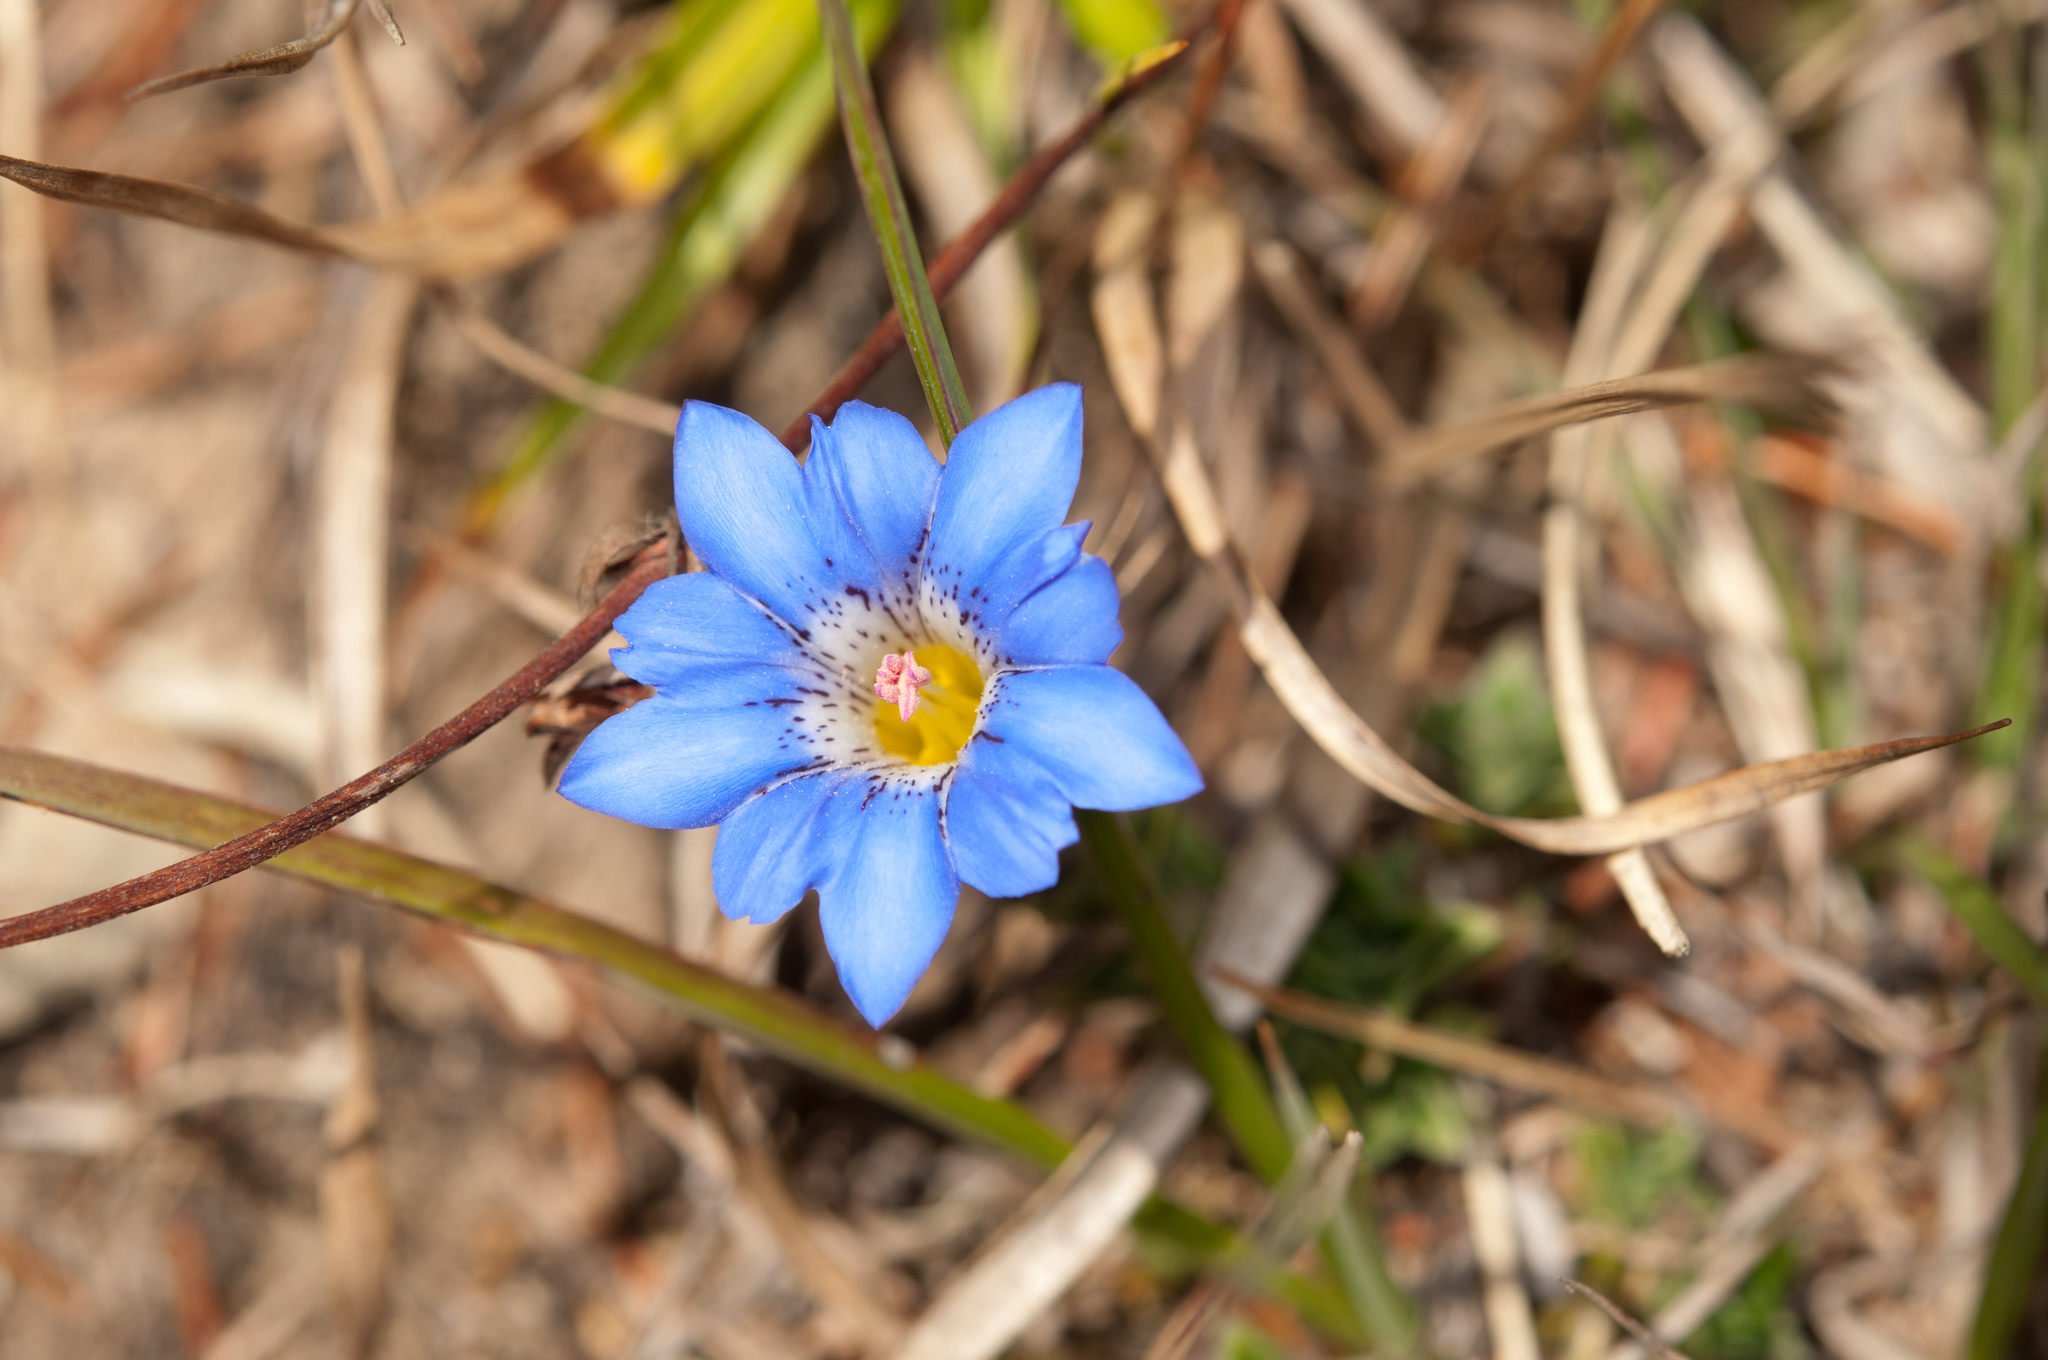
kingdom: Plantae
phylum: Tracheophyta
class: Magnoliopsida
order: Gentianales
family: Gentianaceae
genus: Gentiana
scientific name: Gentiana arisanensis
